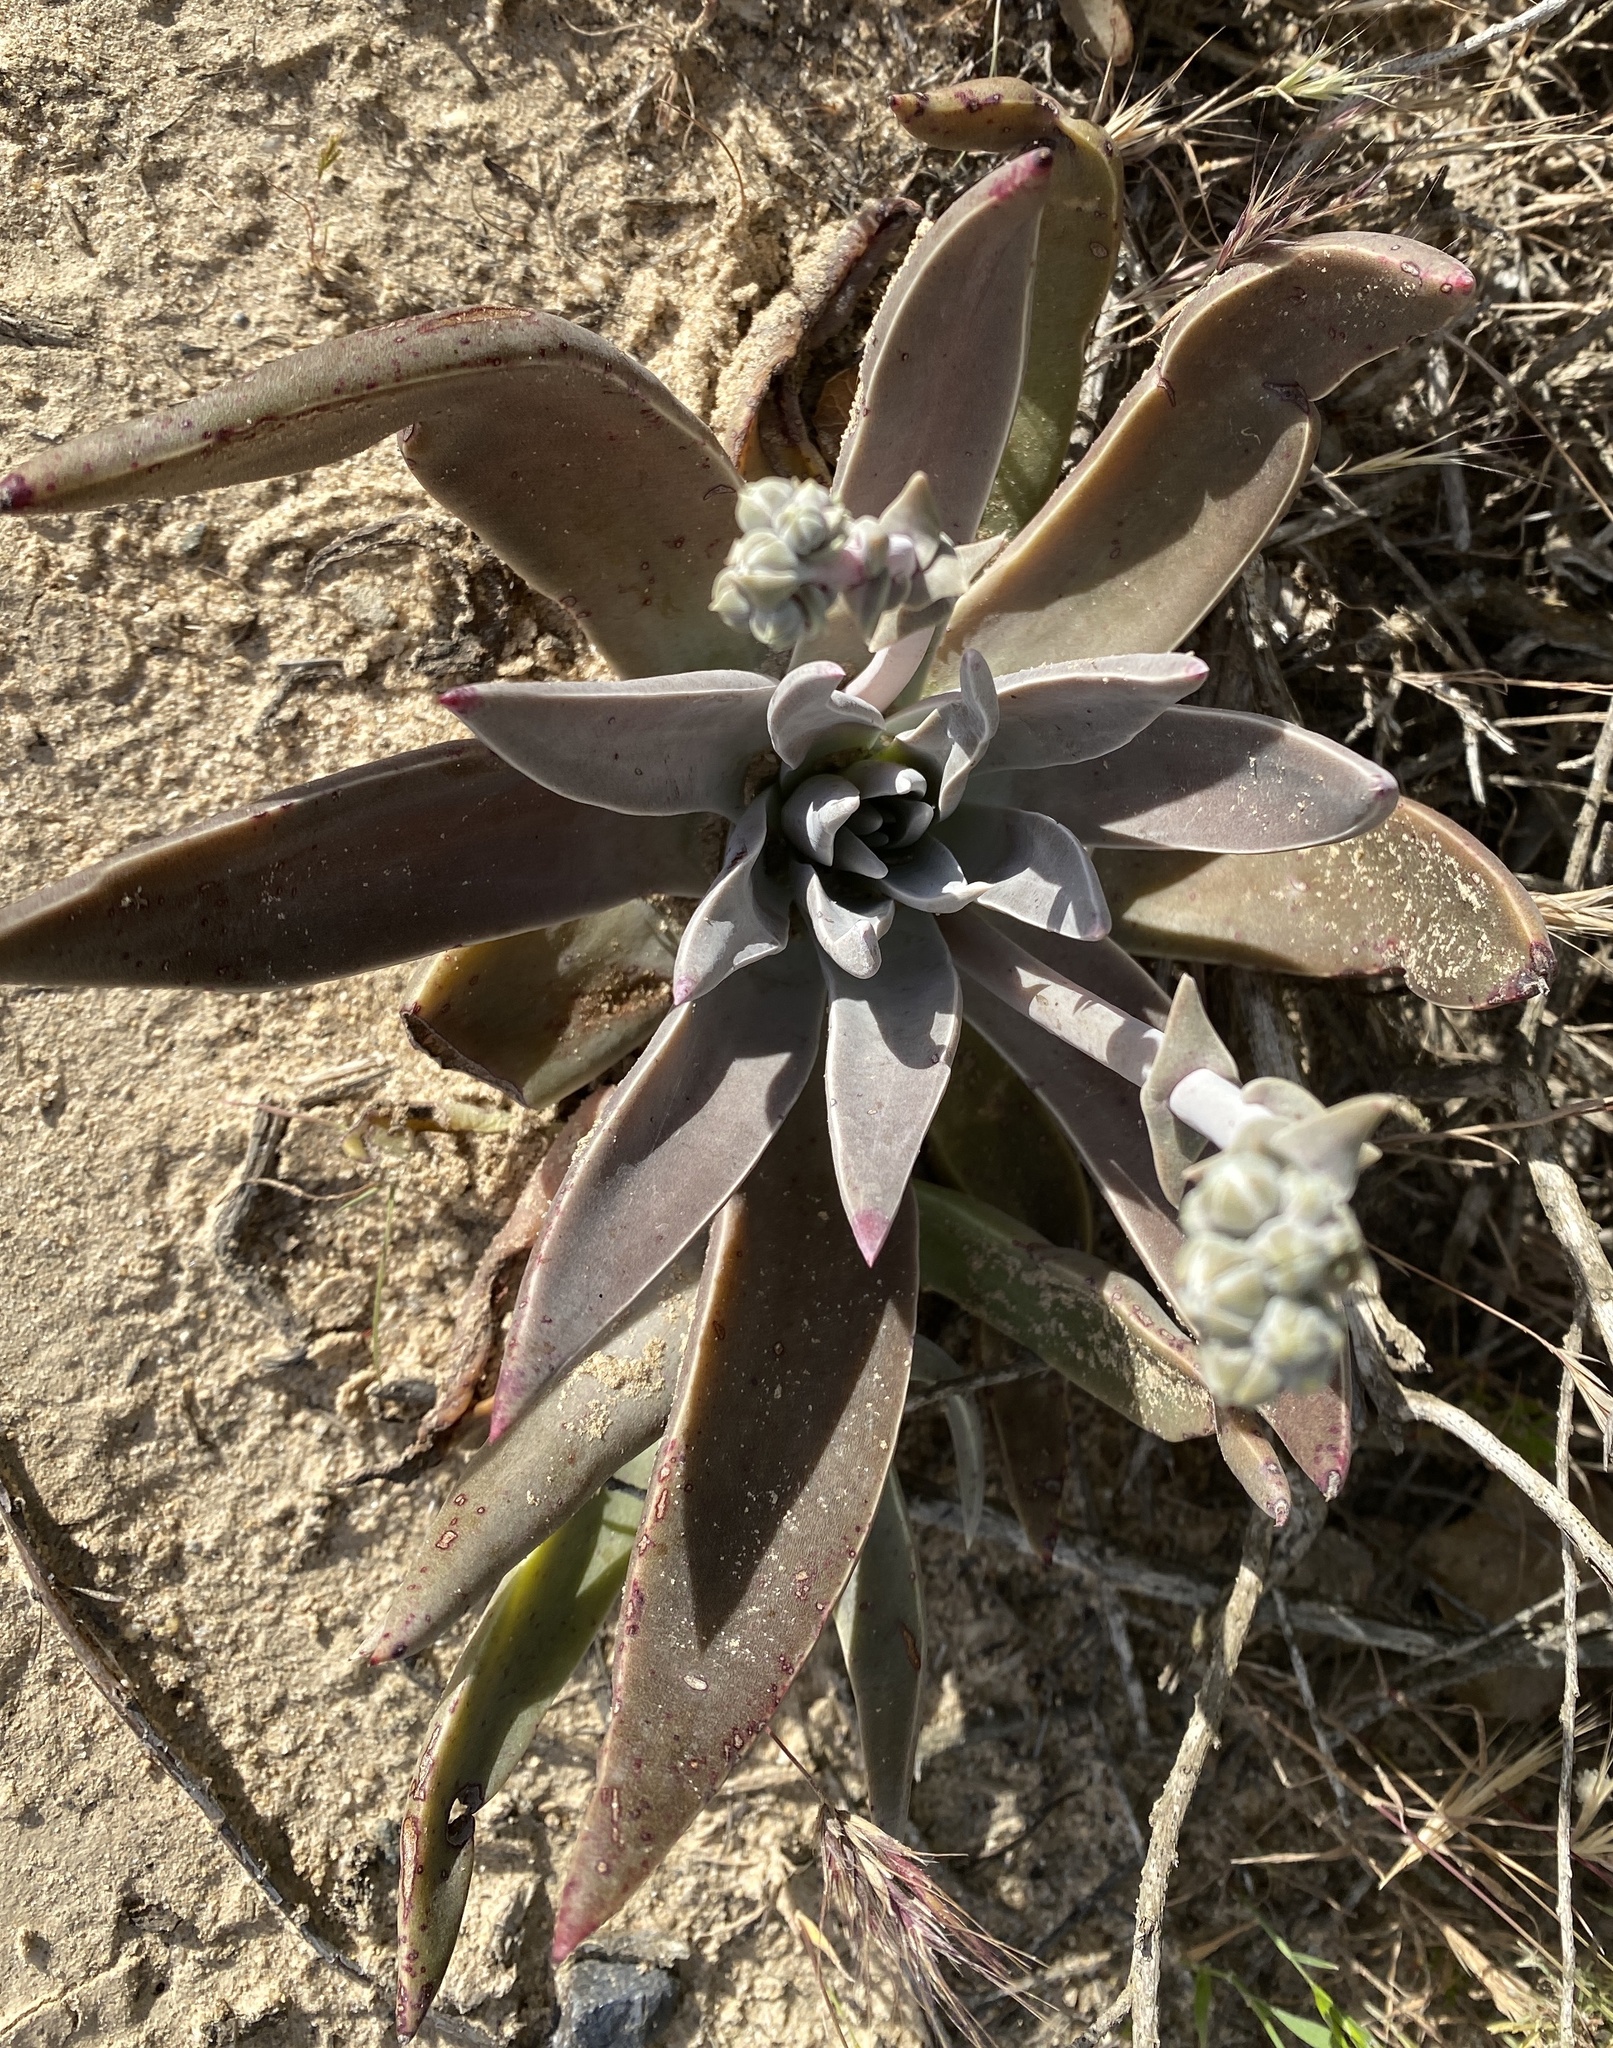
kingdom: Plantae
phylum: Tracheophyta
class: Magnoliopsida
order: Saxifragales
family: Crassulaceae
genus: Dudleya
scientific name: Dudleya lanceolata
